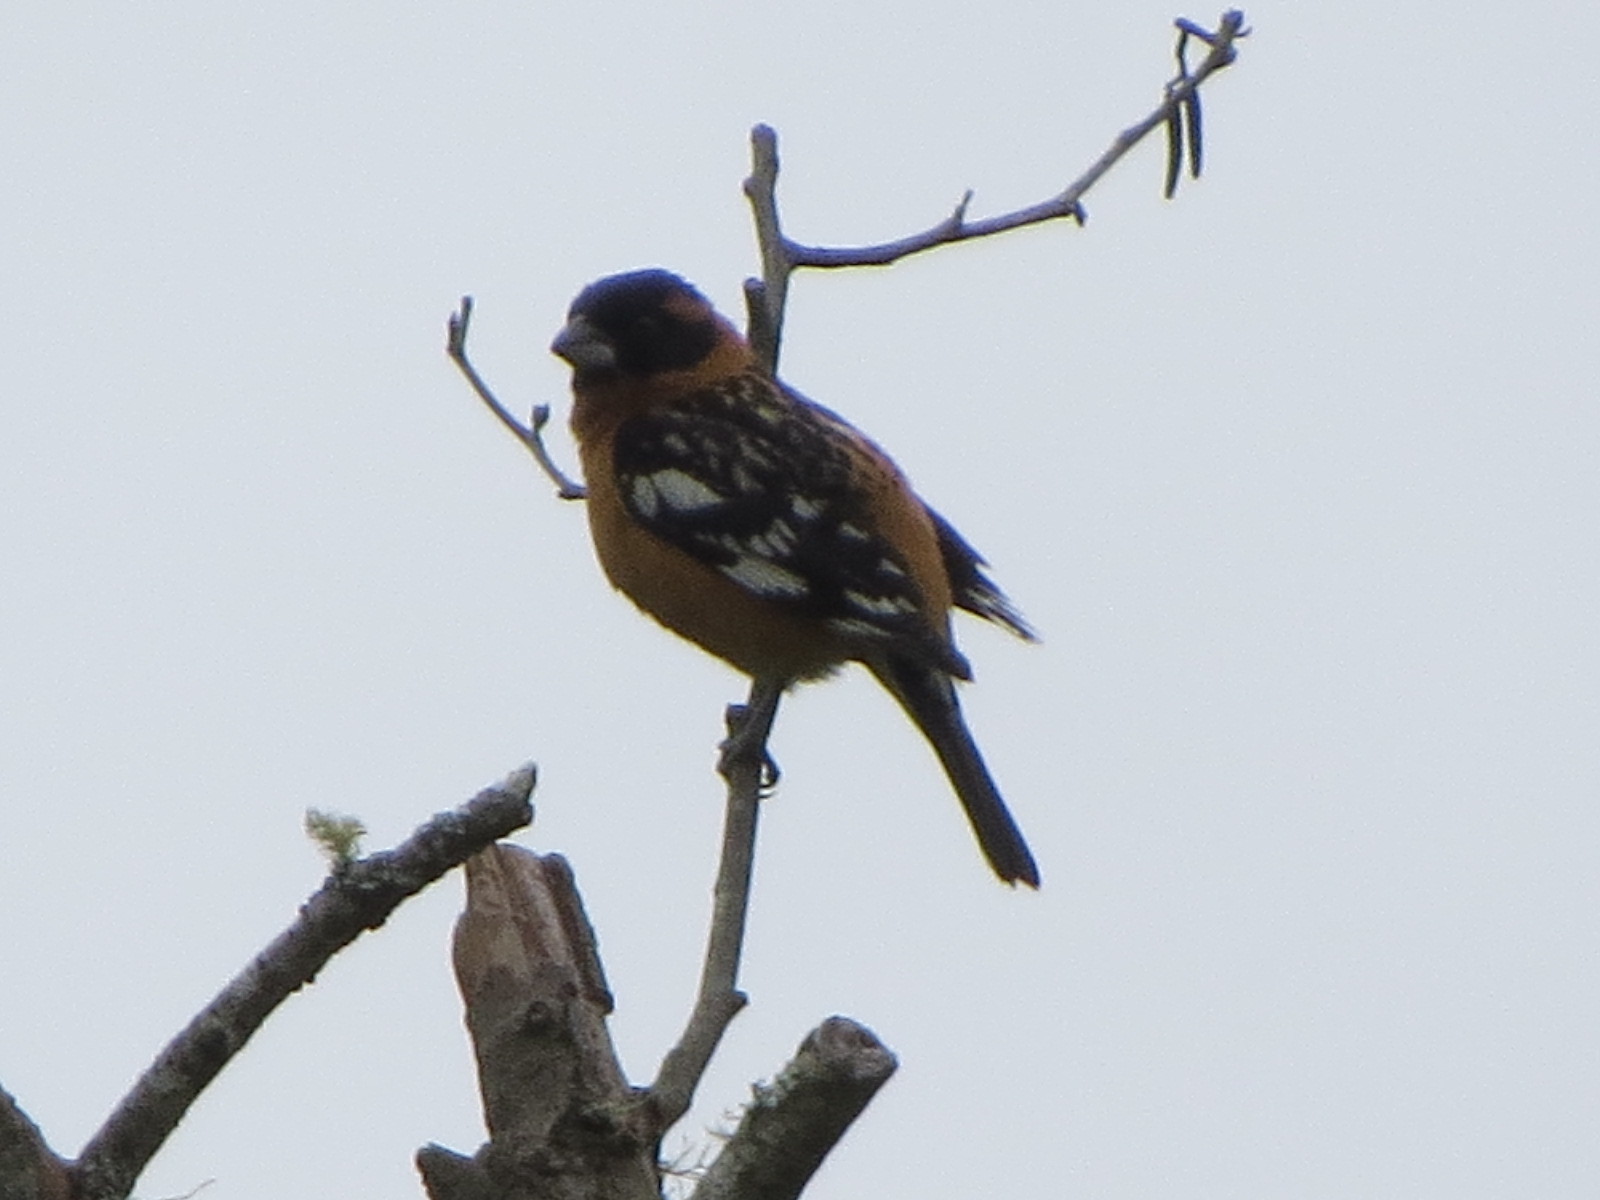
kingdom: Animalia
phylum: Chordata
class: Aves
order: Passeriformes
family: Cardinalidae
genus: Pheucticus
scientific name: Pheucticus melanocephalus
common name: Black-headed grosbeak
